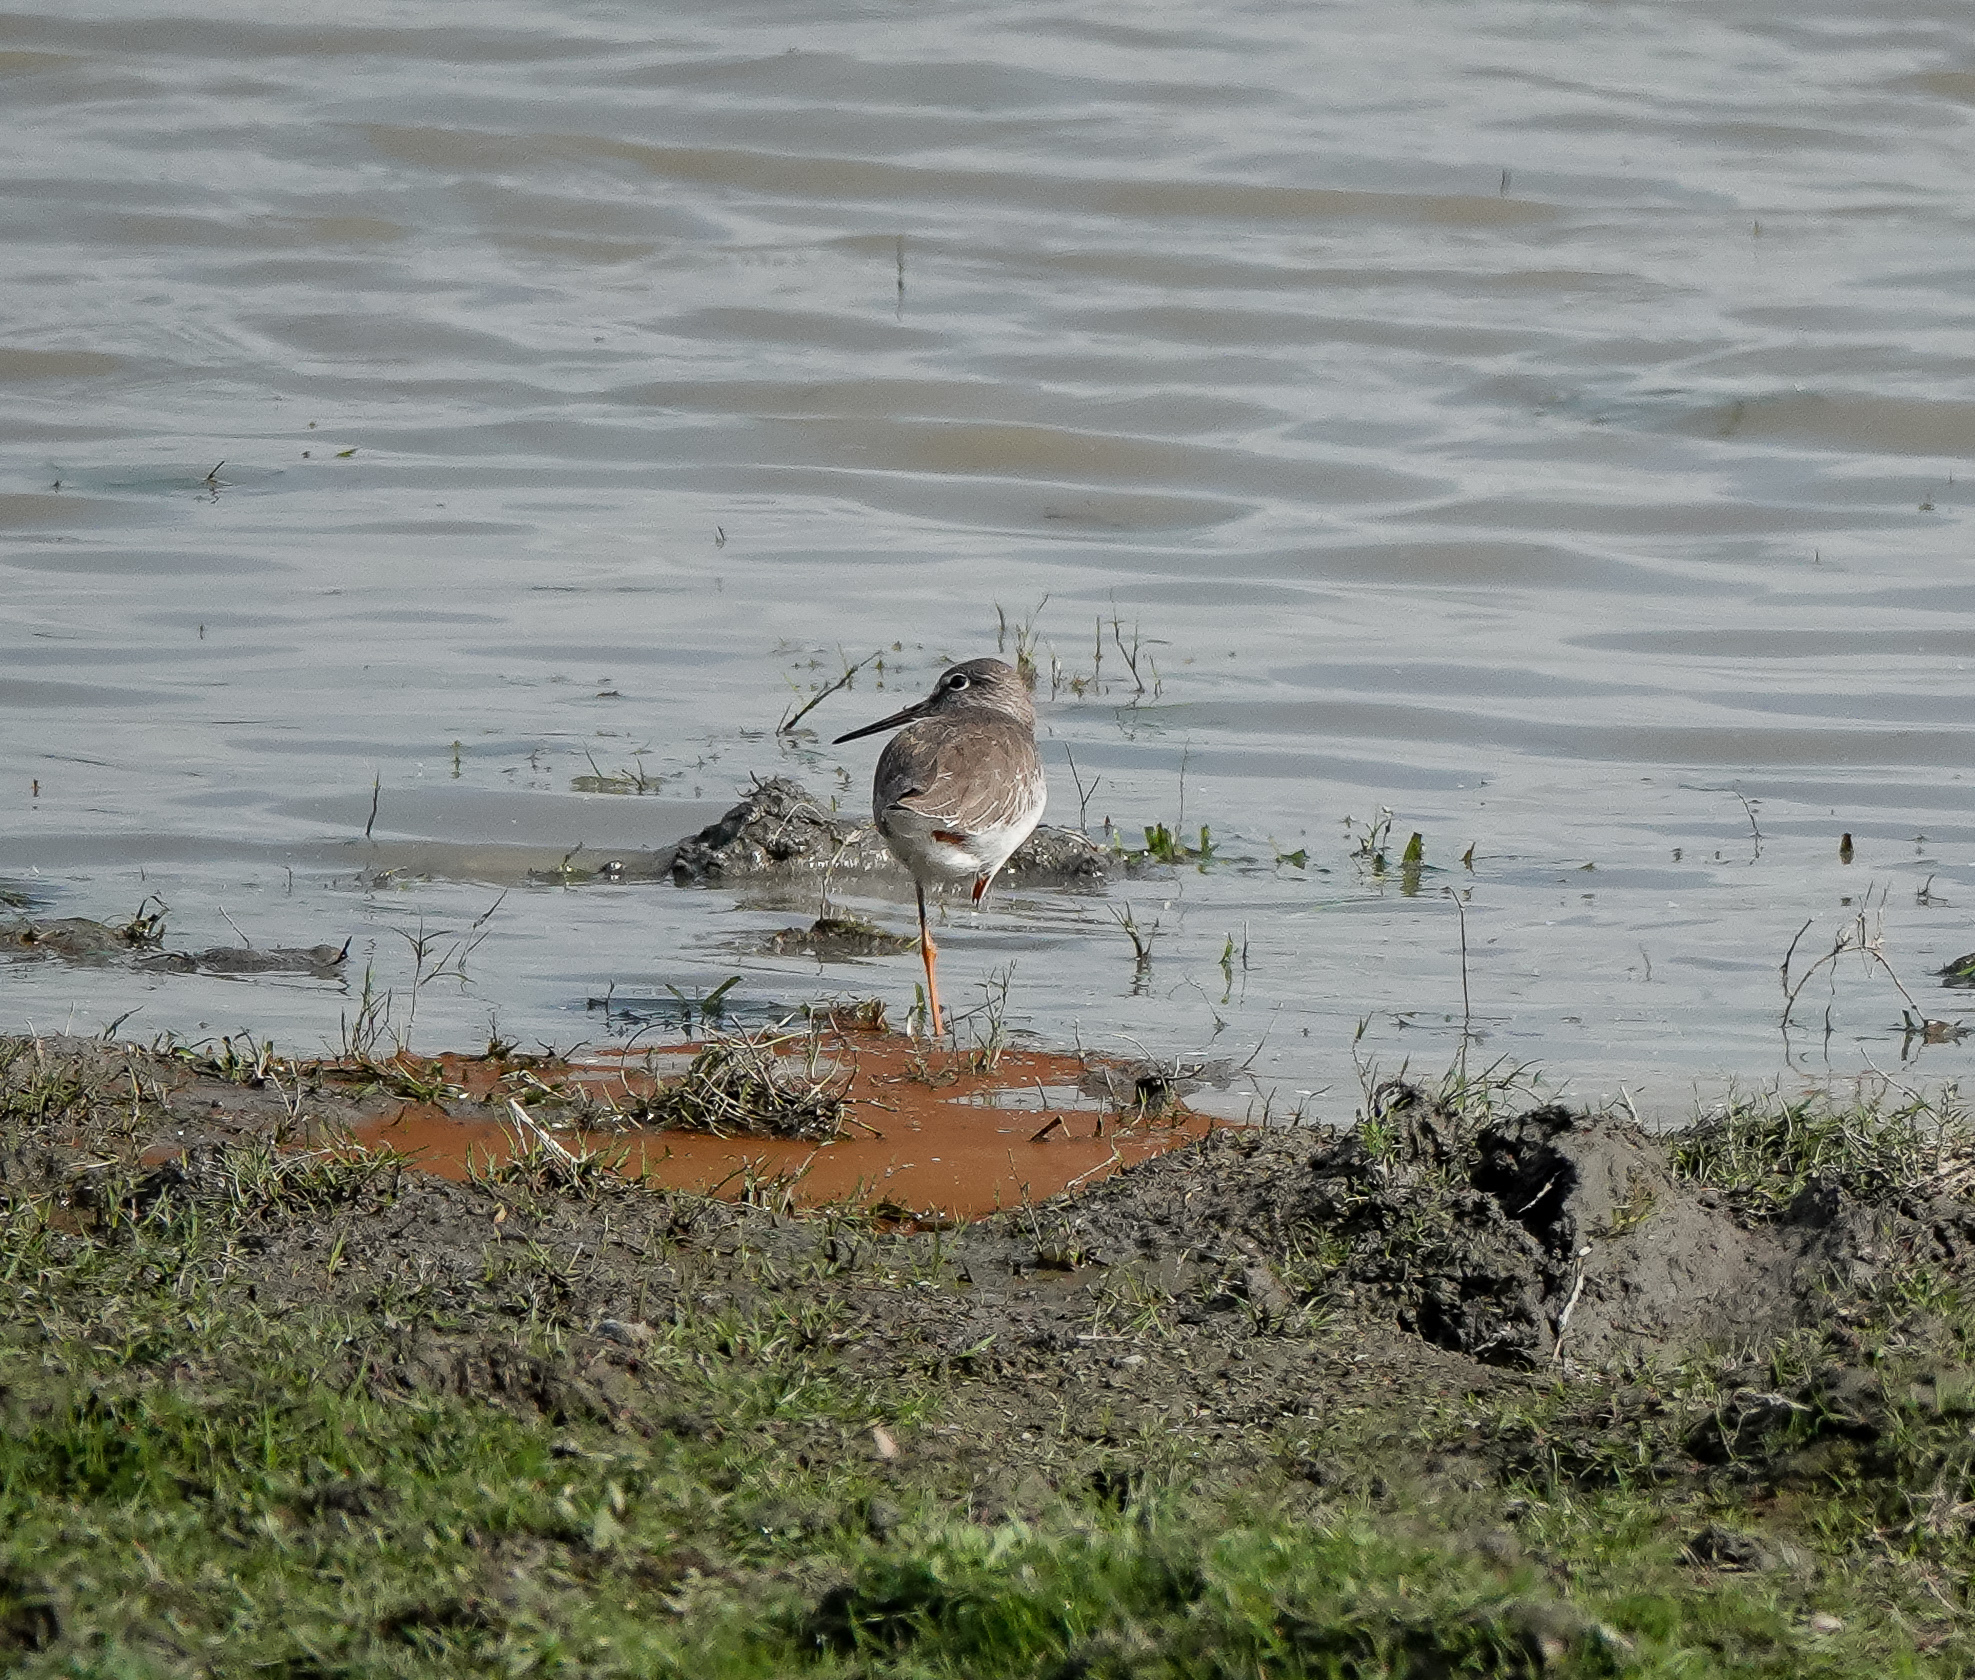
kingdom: Animalia
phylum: Chordata
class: Aves
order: Charadriiformes
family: Scolopacidae
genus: Tringa
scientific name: Tringa totanus
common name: Common redshank
